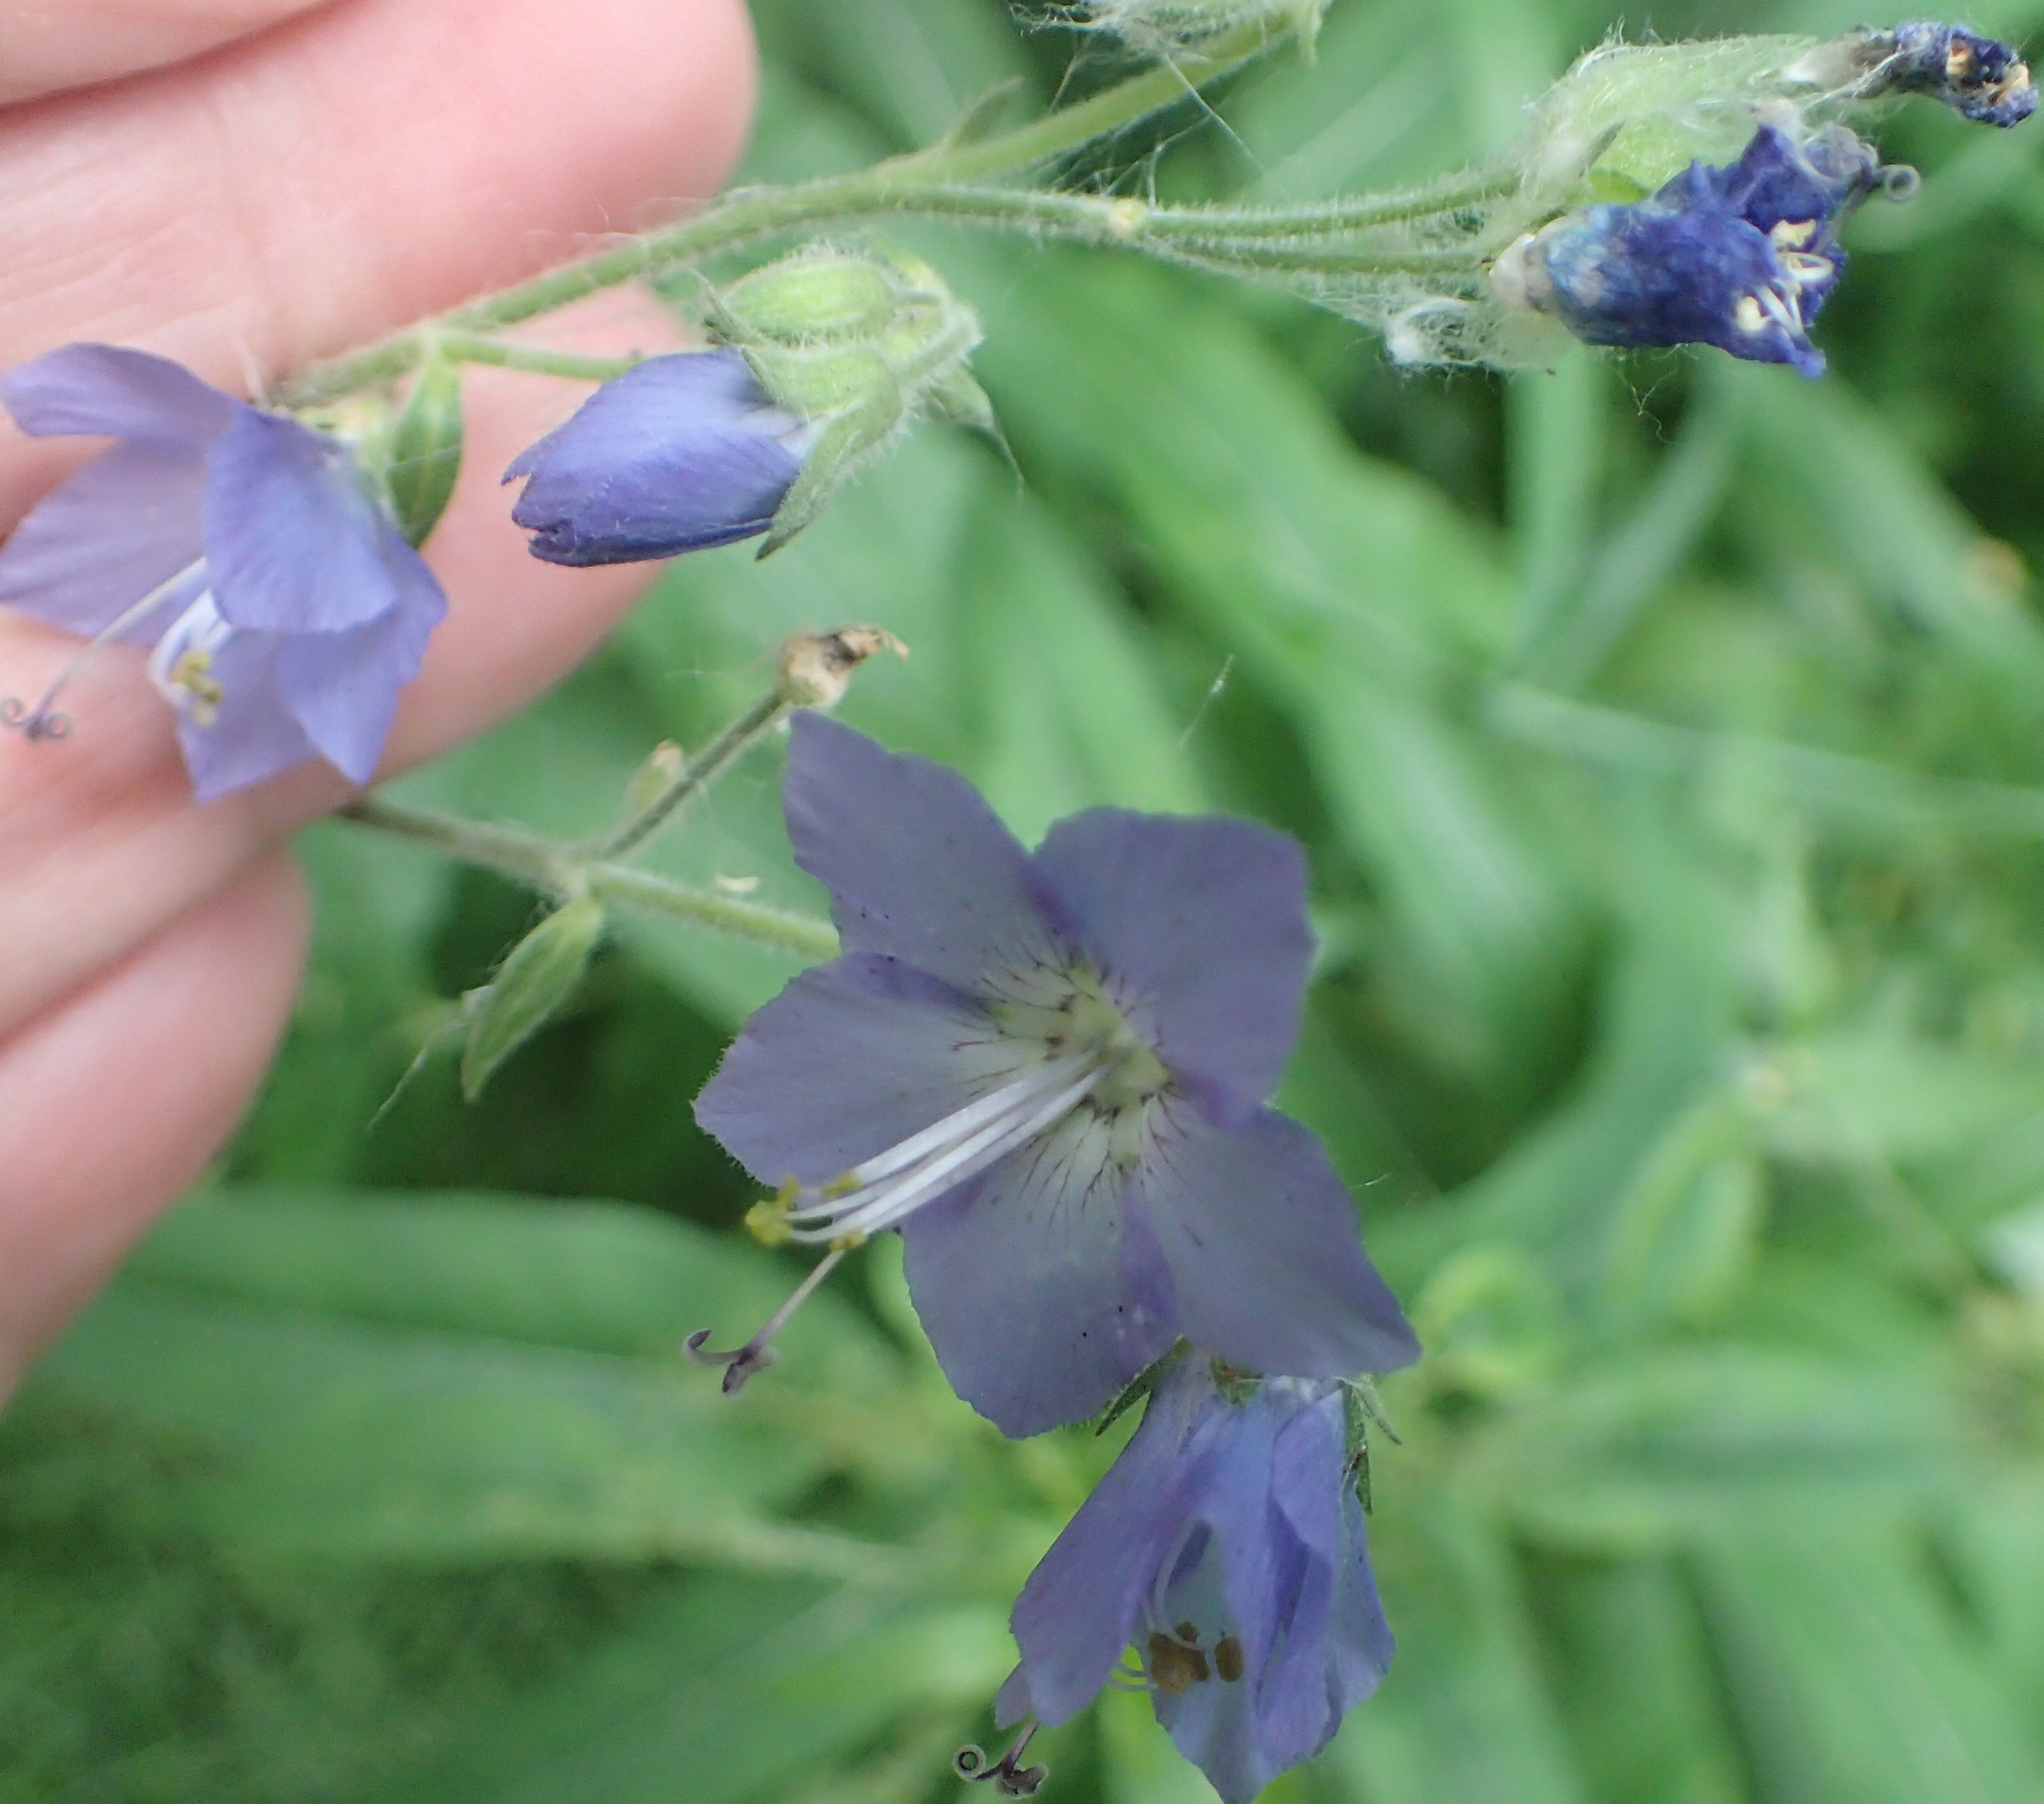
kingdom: Plantae
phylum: Tracheophyta
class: Magnoliopsida
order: Ericales
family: Polemoniaceae
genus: Polemonium
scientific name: Polemonium acutiflorum
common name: Tall jacob's-ladder
